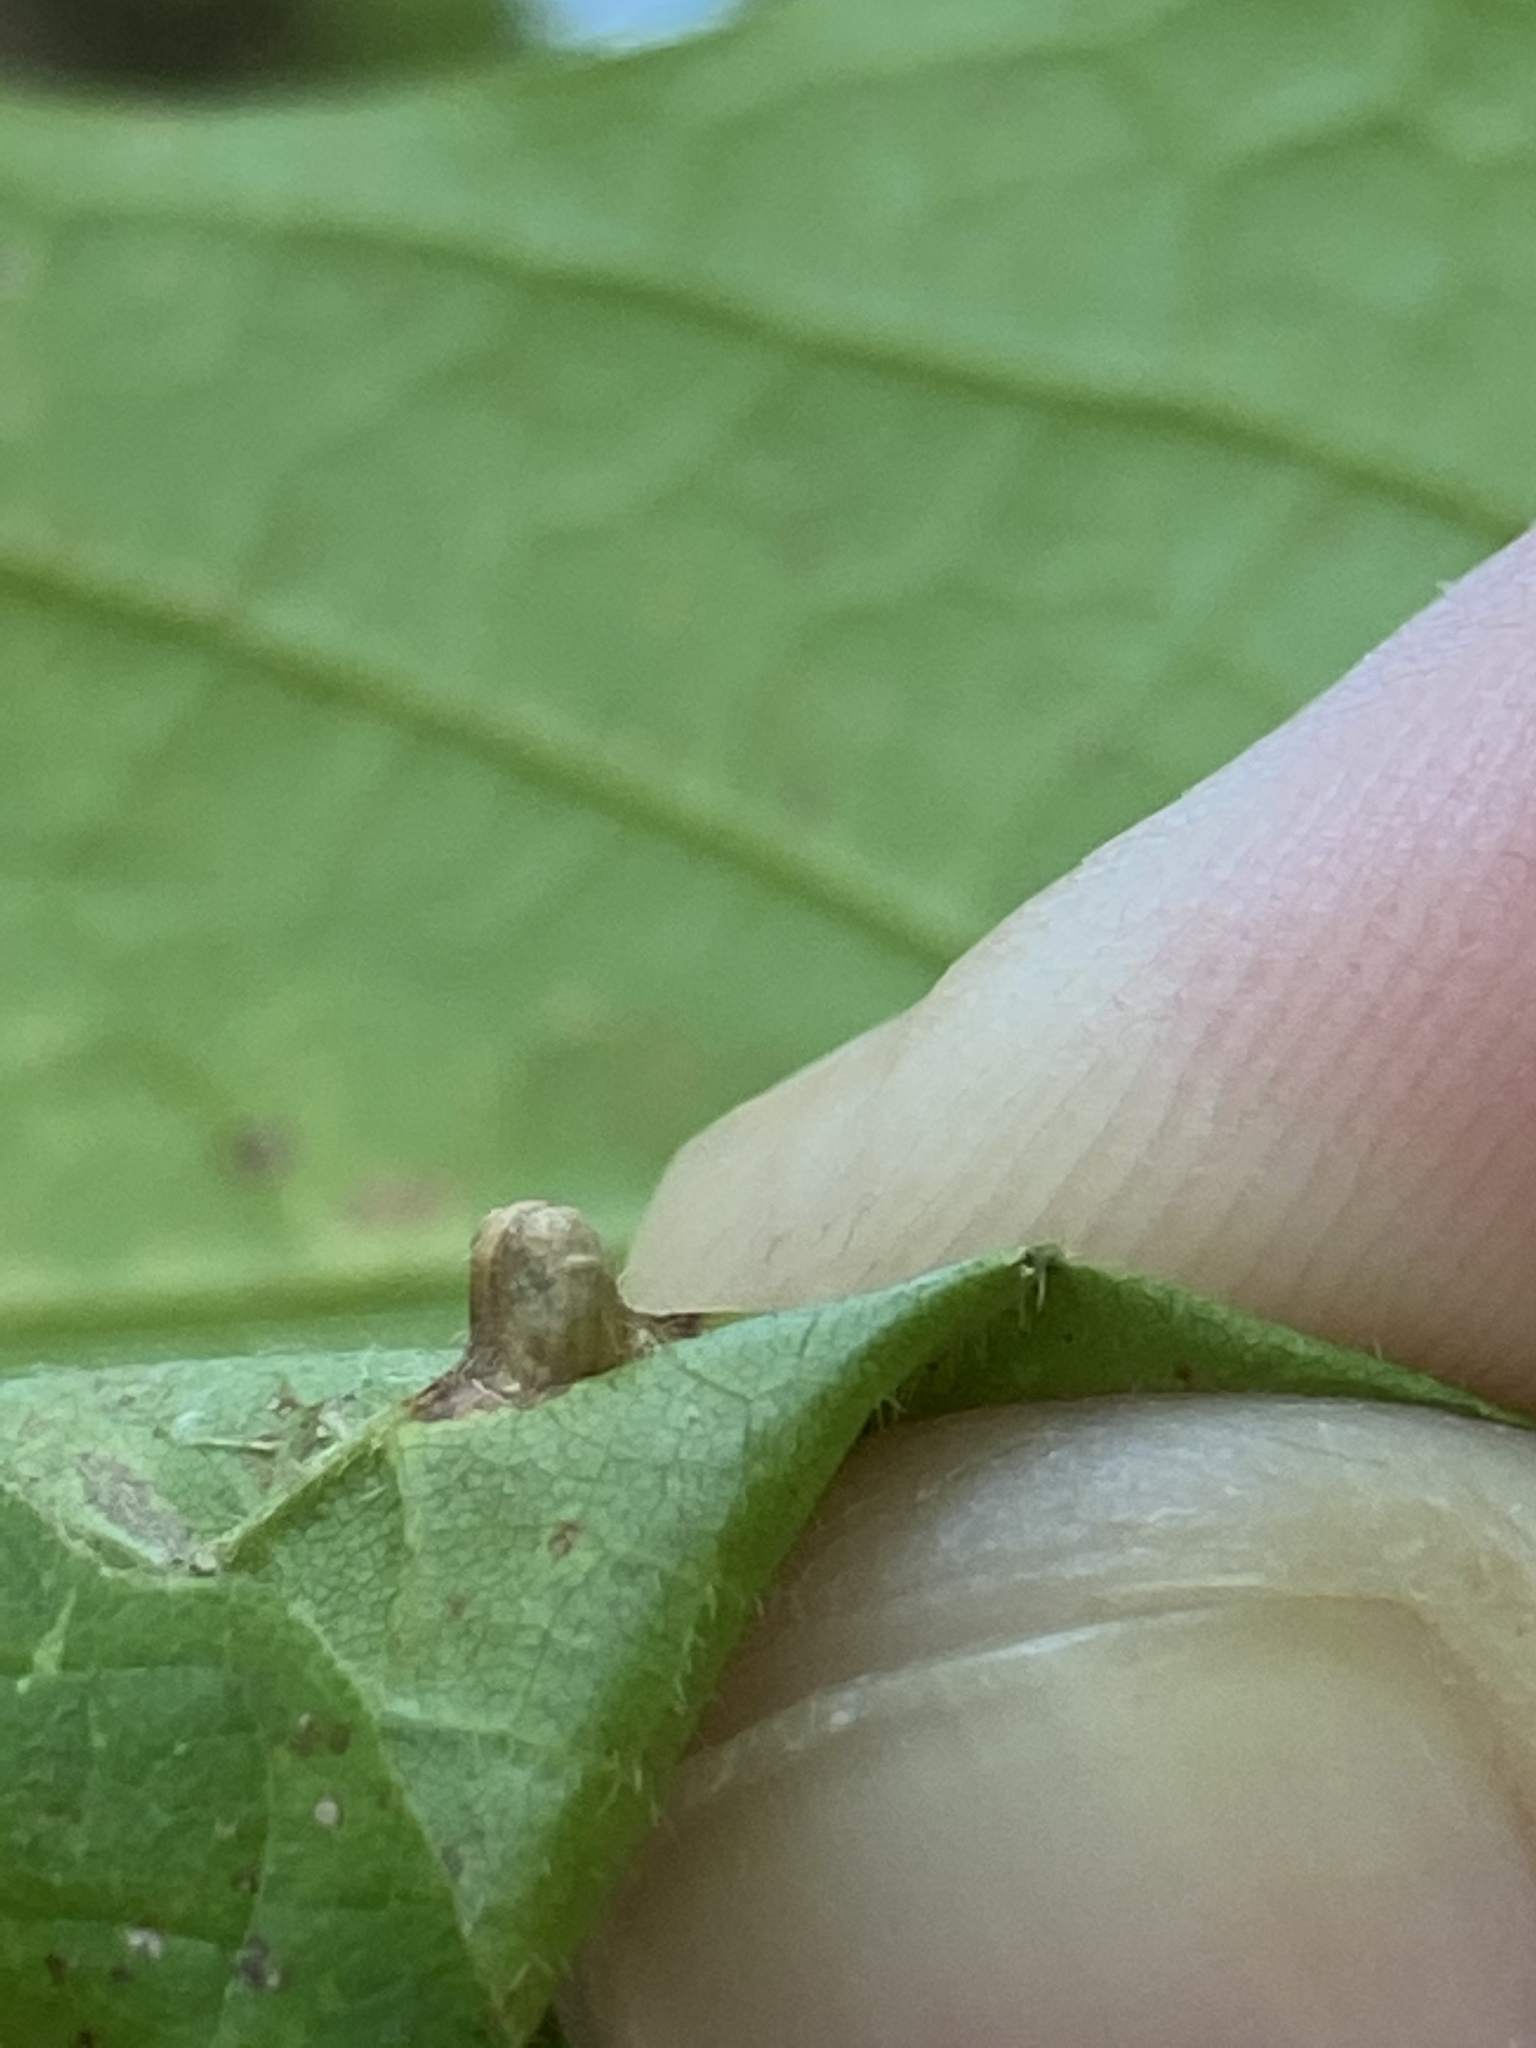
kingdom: Animalia
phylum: Arthropoda
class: Insecta
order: Diptera
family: Cecidomyiidae
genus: Dasineura
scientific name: Dasineura communis
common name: Gouty vein midge
